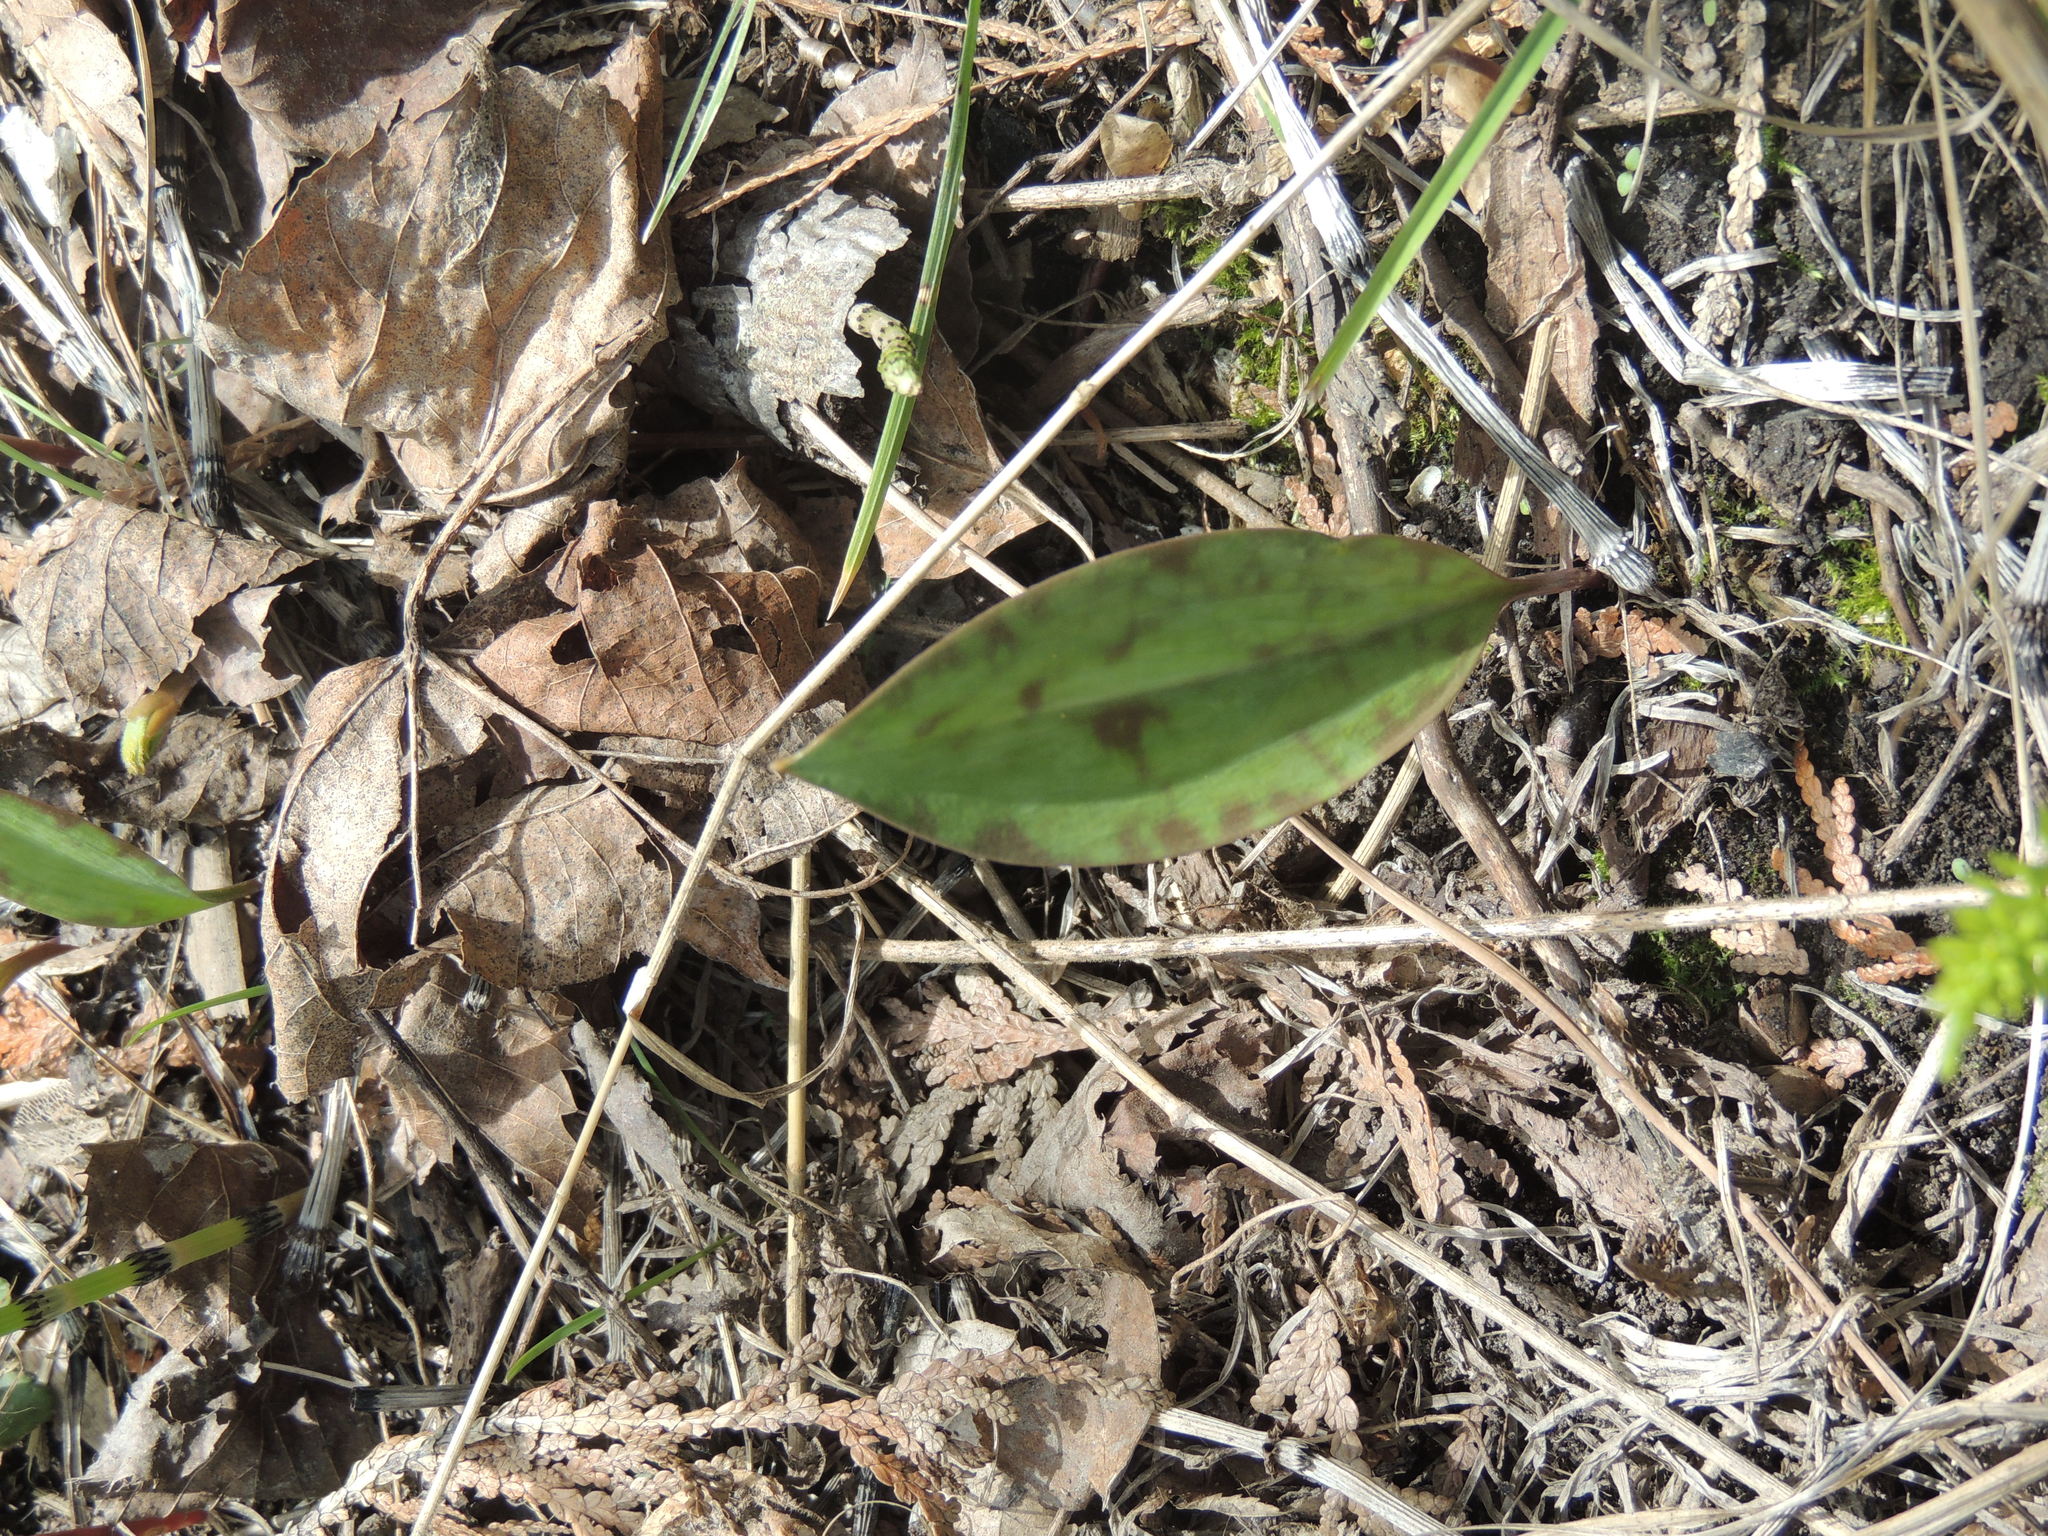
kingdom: Plantae
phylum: Tracheophyta
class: Liliopsida
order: Liliales
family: Liliaceae
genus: Erythronium
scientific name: Erythronium americanum
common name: Yellow adder's-tongue
